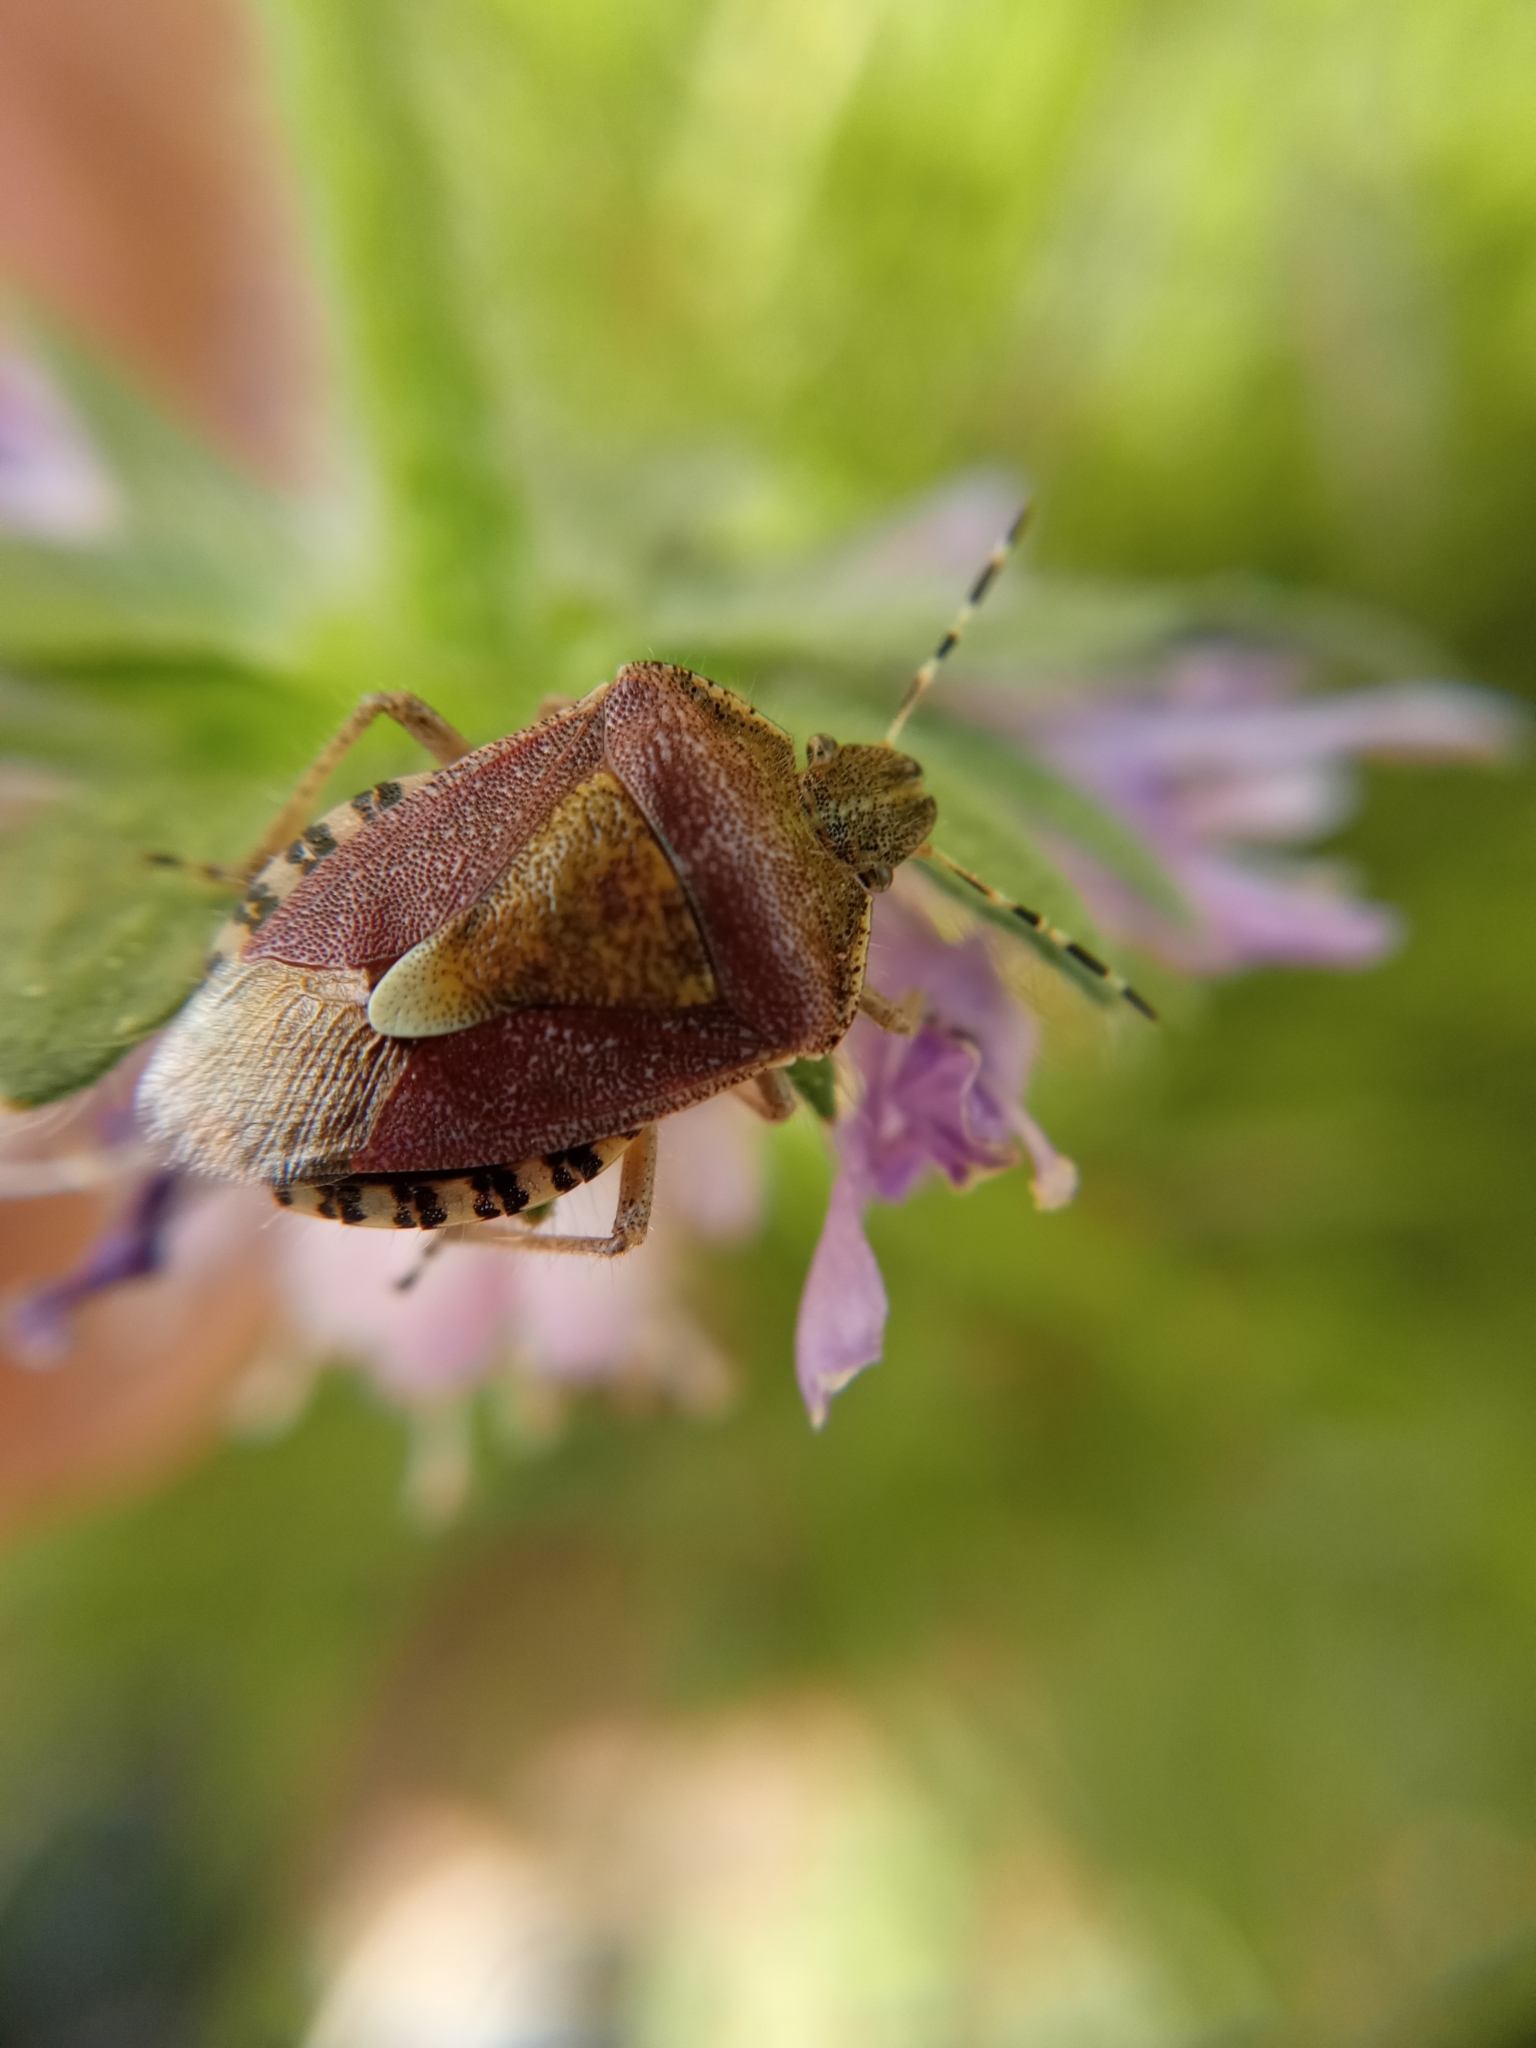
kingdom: Animalia
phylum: Arthropoda
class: Insecta
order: Hemiptera
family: Pentatomidae
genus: Dolycoris
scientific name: Dolycoris baccarum
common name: Sloe bug
